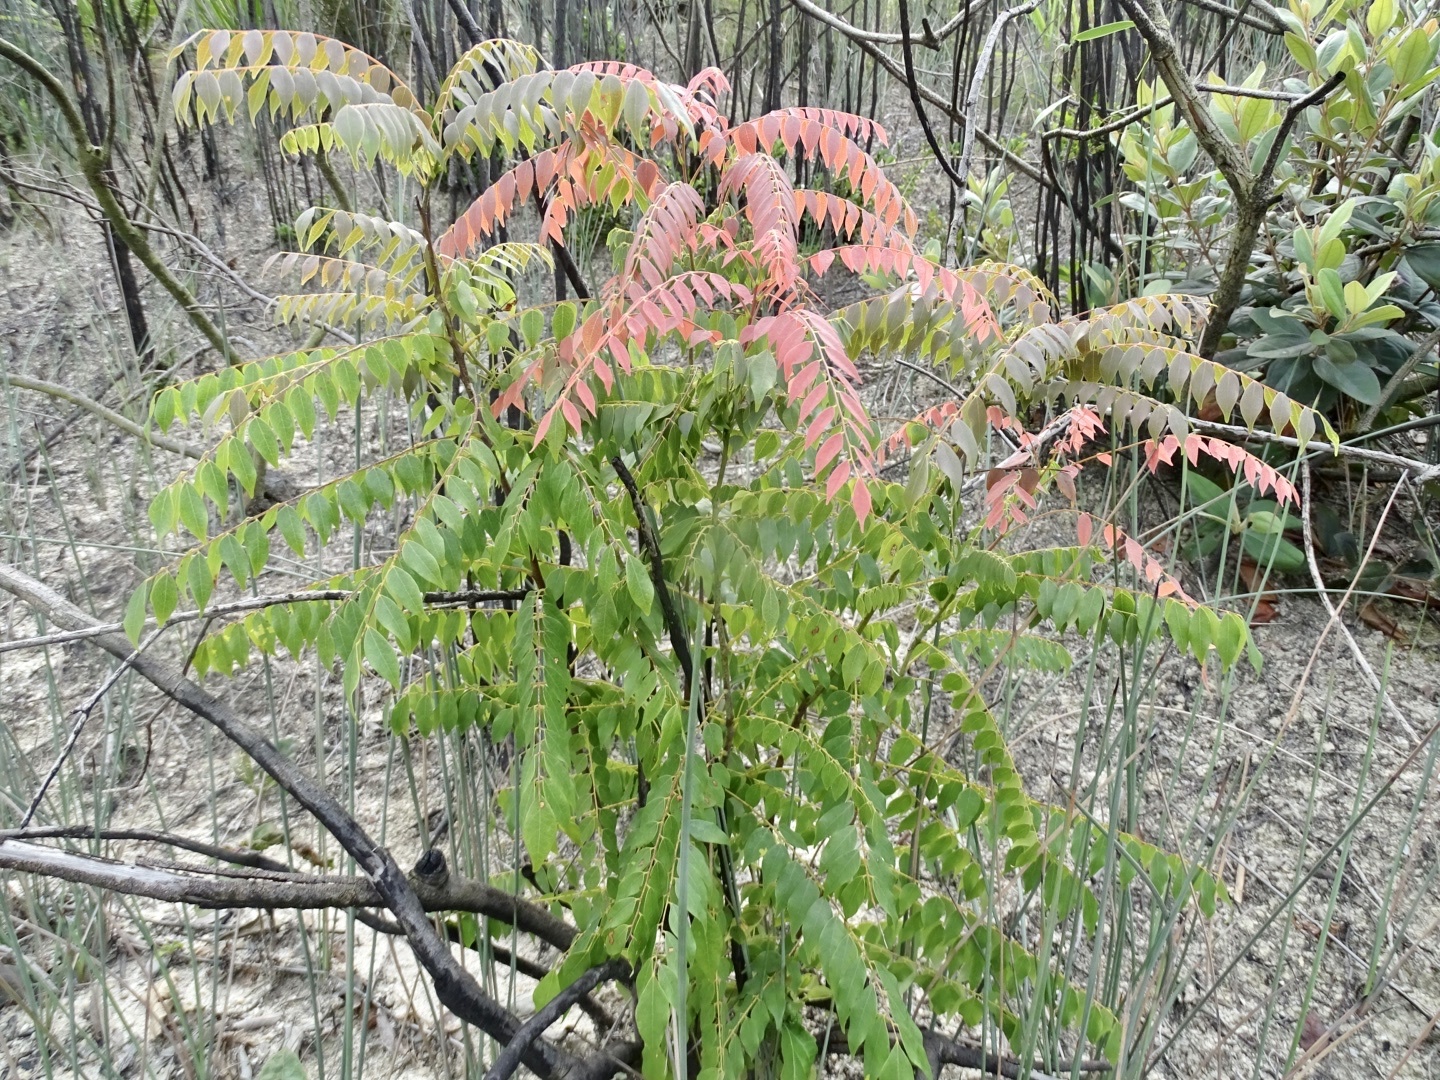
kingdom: Plantae
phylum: Tracheophyta
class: Magnoliopsida
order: Oxalidales
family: Connaraceae
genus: Rourea
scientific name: Rourea microphylla
